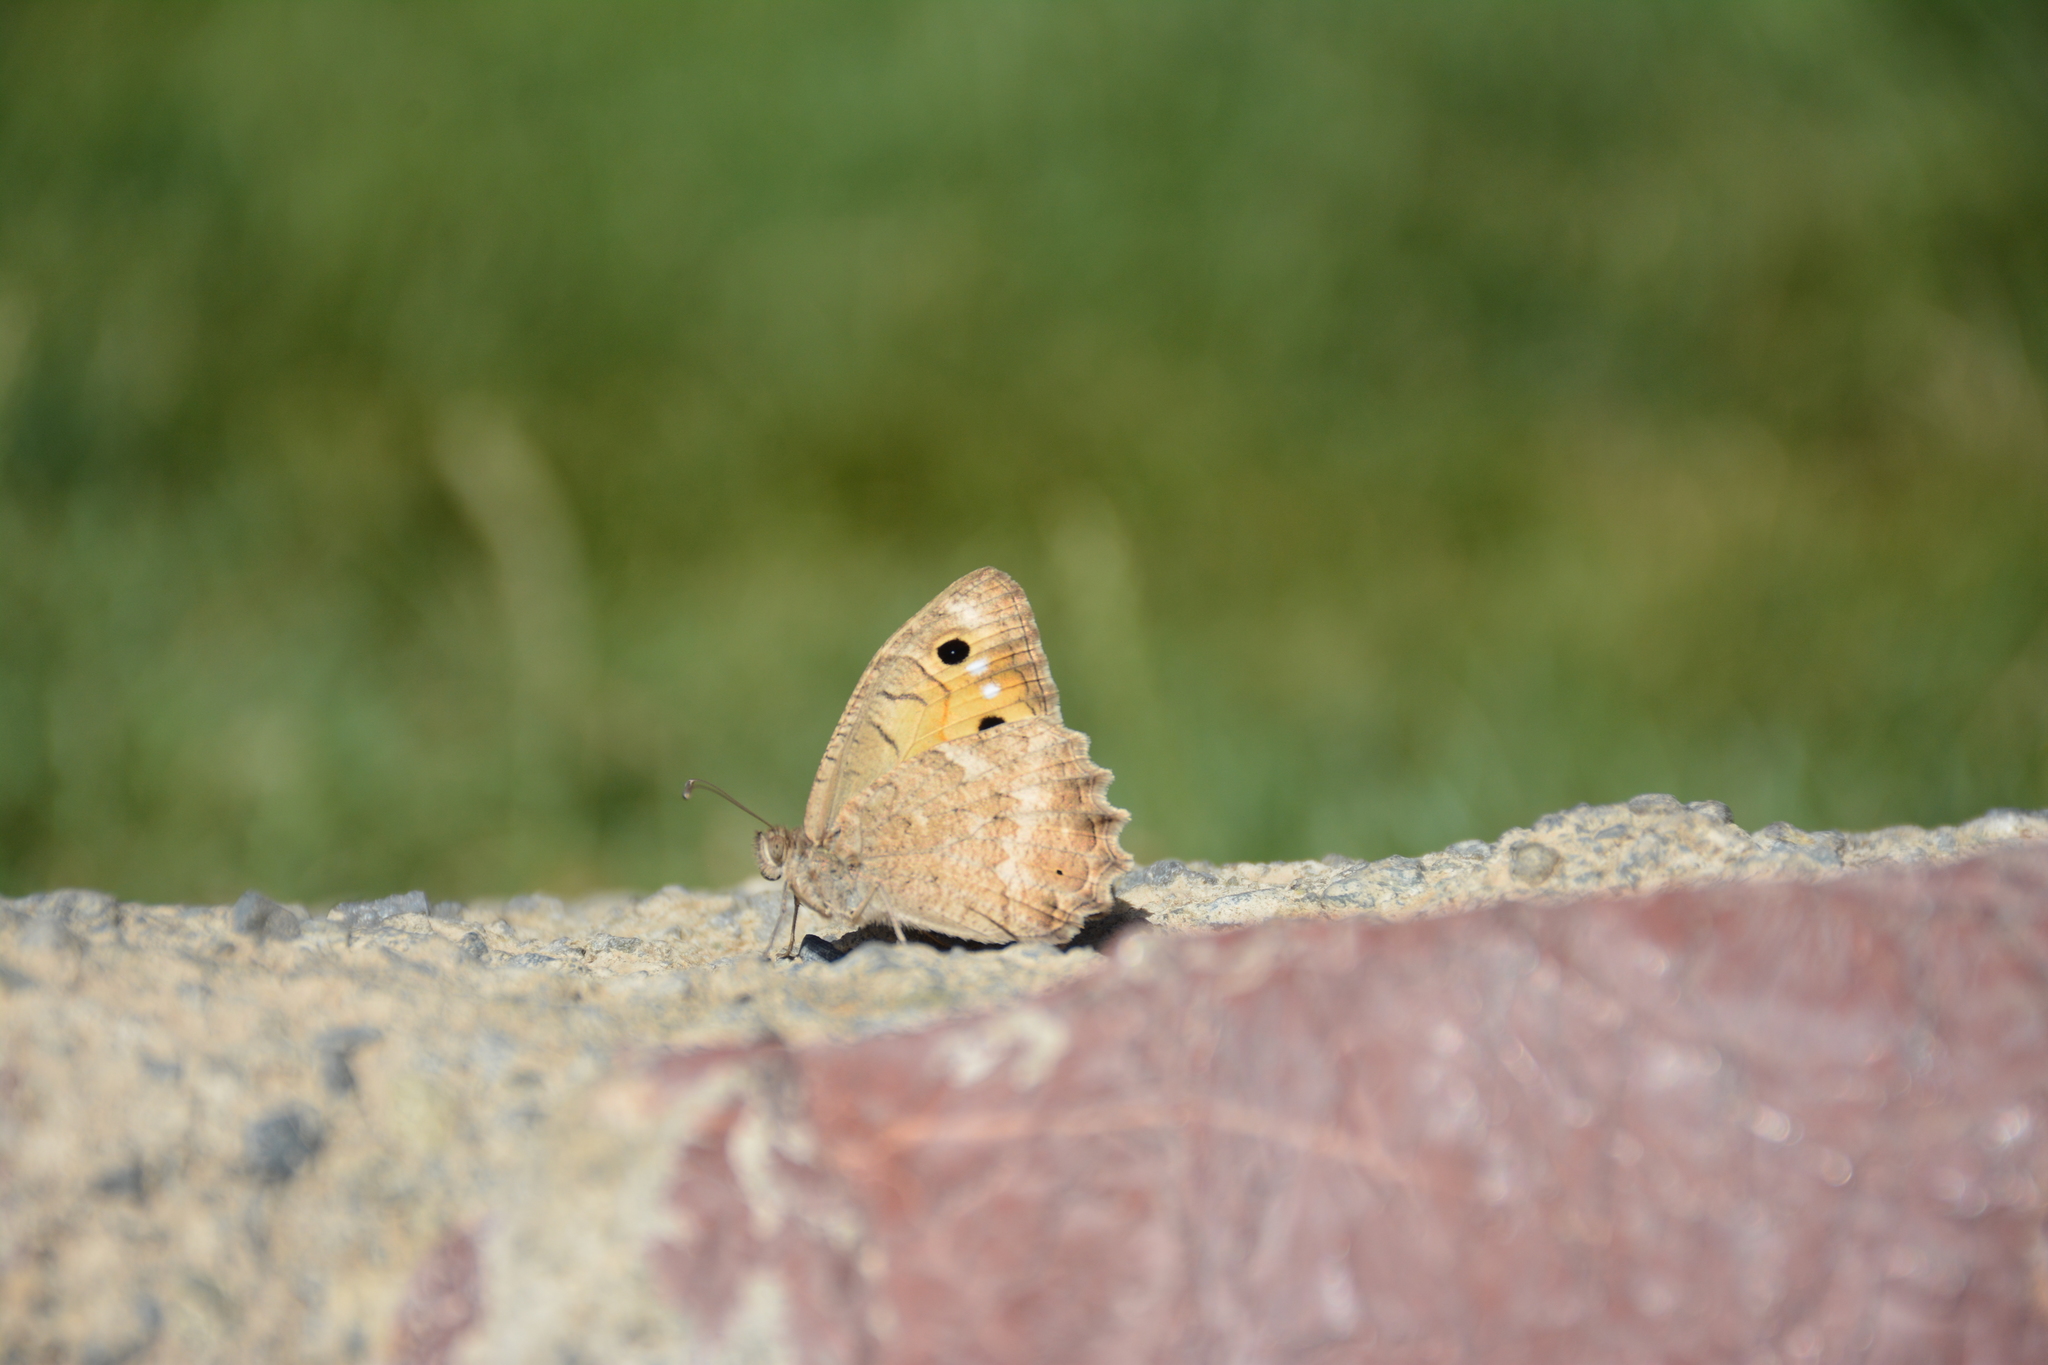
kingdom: Animalia
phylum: Arthropoda
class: Insecta
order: Lepidoptera
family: Nymphalidae
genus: Pseudochazara
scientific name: Pseudochazara pelopea
